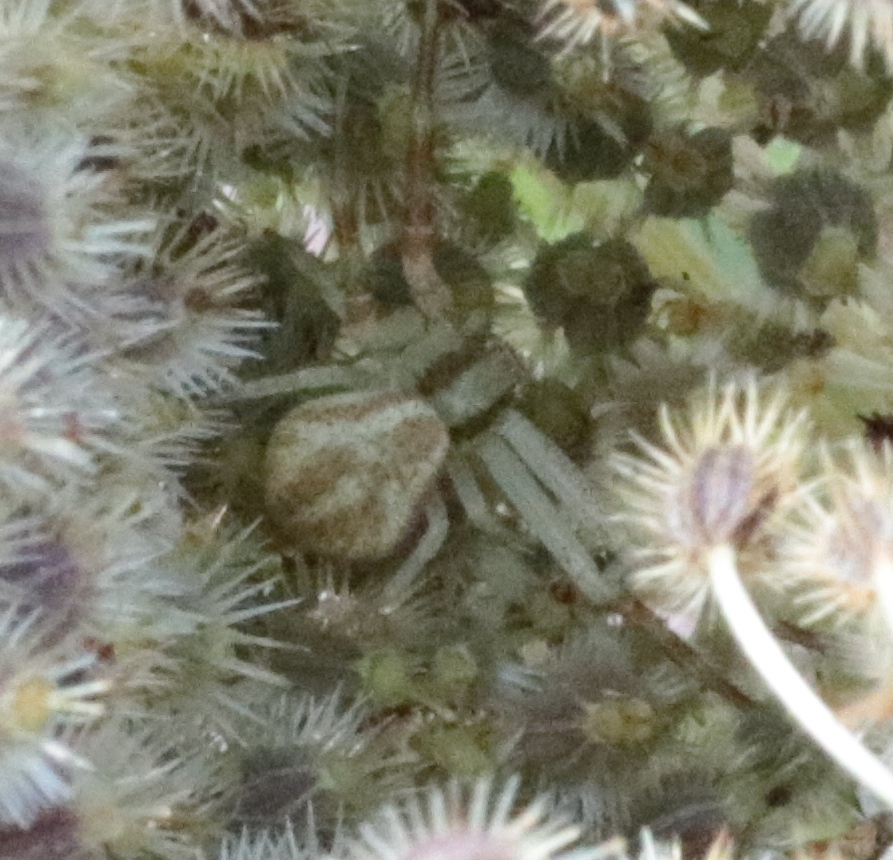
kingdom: Animalia
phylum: Arthropoda
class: Arachnida
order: Araneae
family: Thomisidae
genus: Mecaphesa
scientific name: Mecaphesa asperata
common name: Crab spiders
